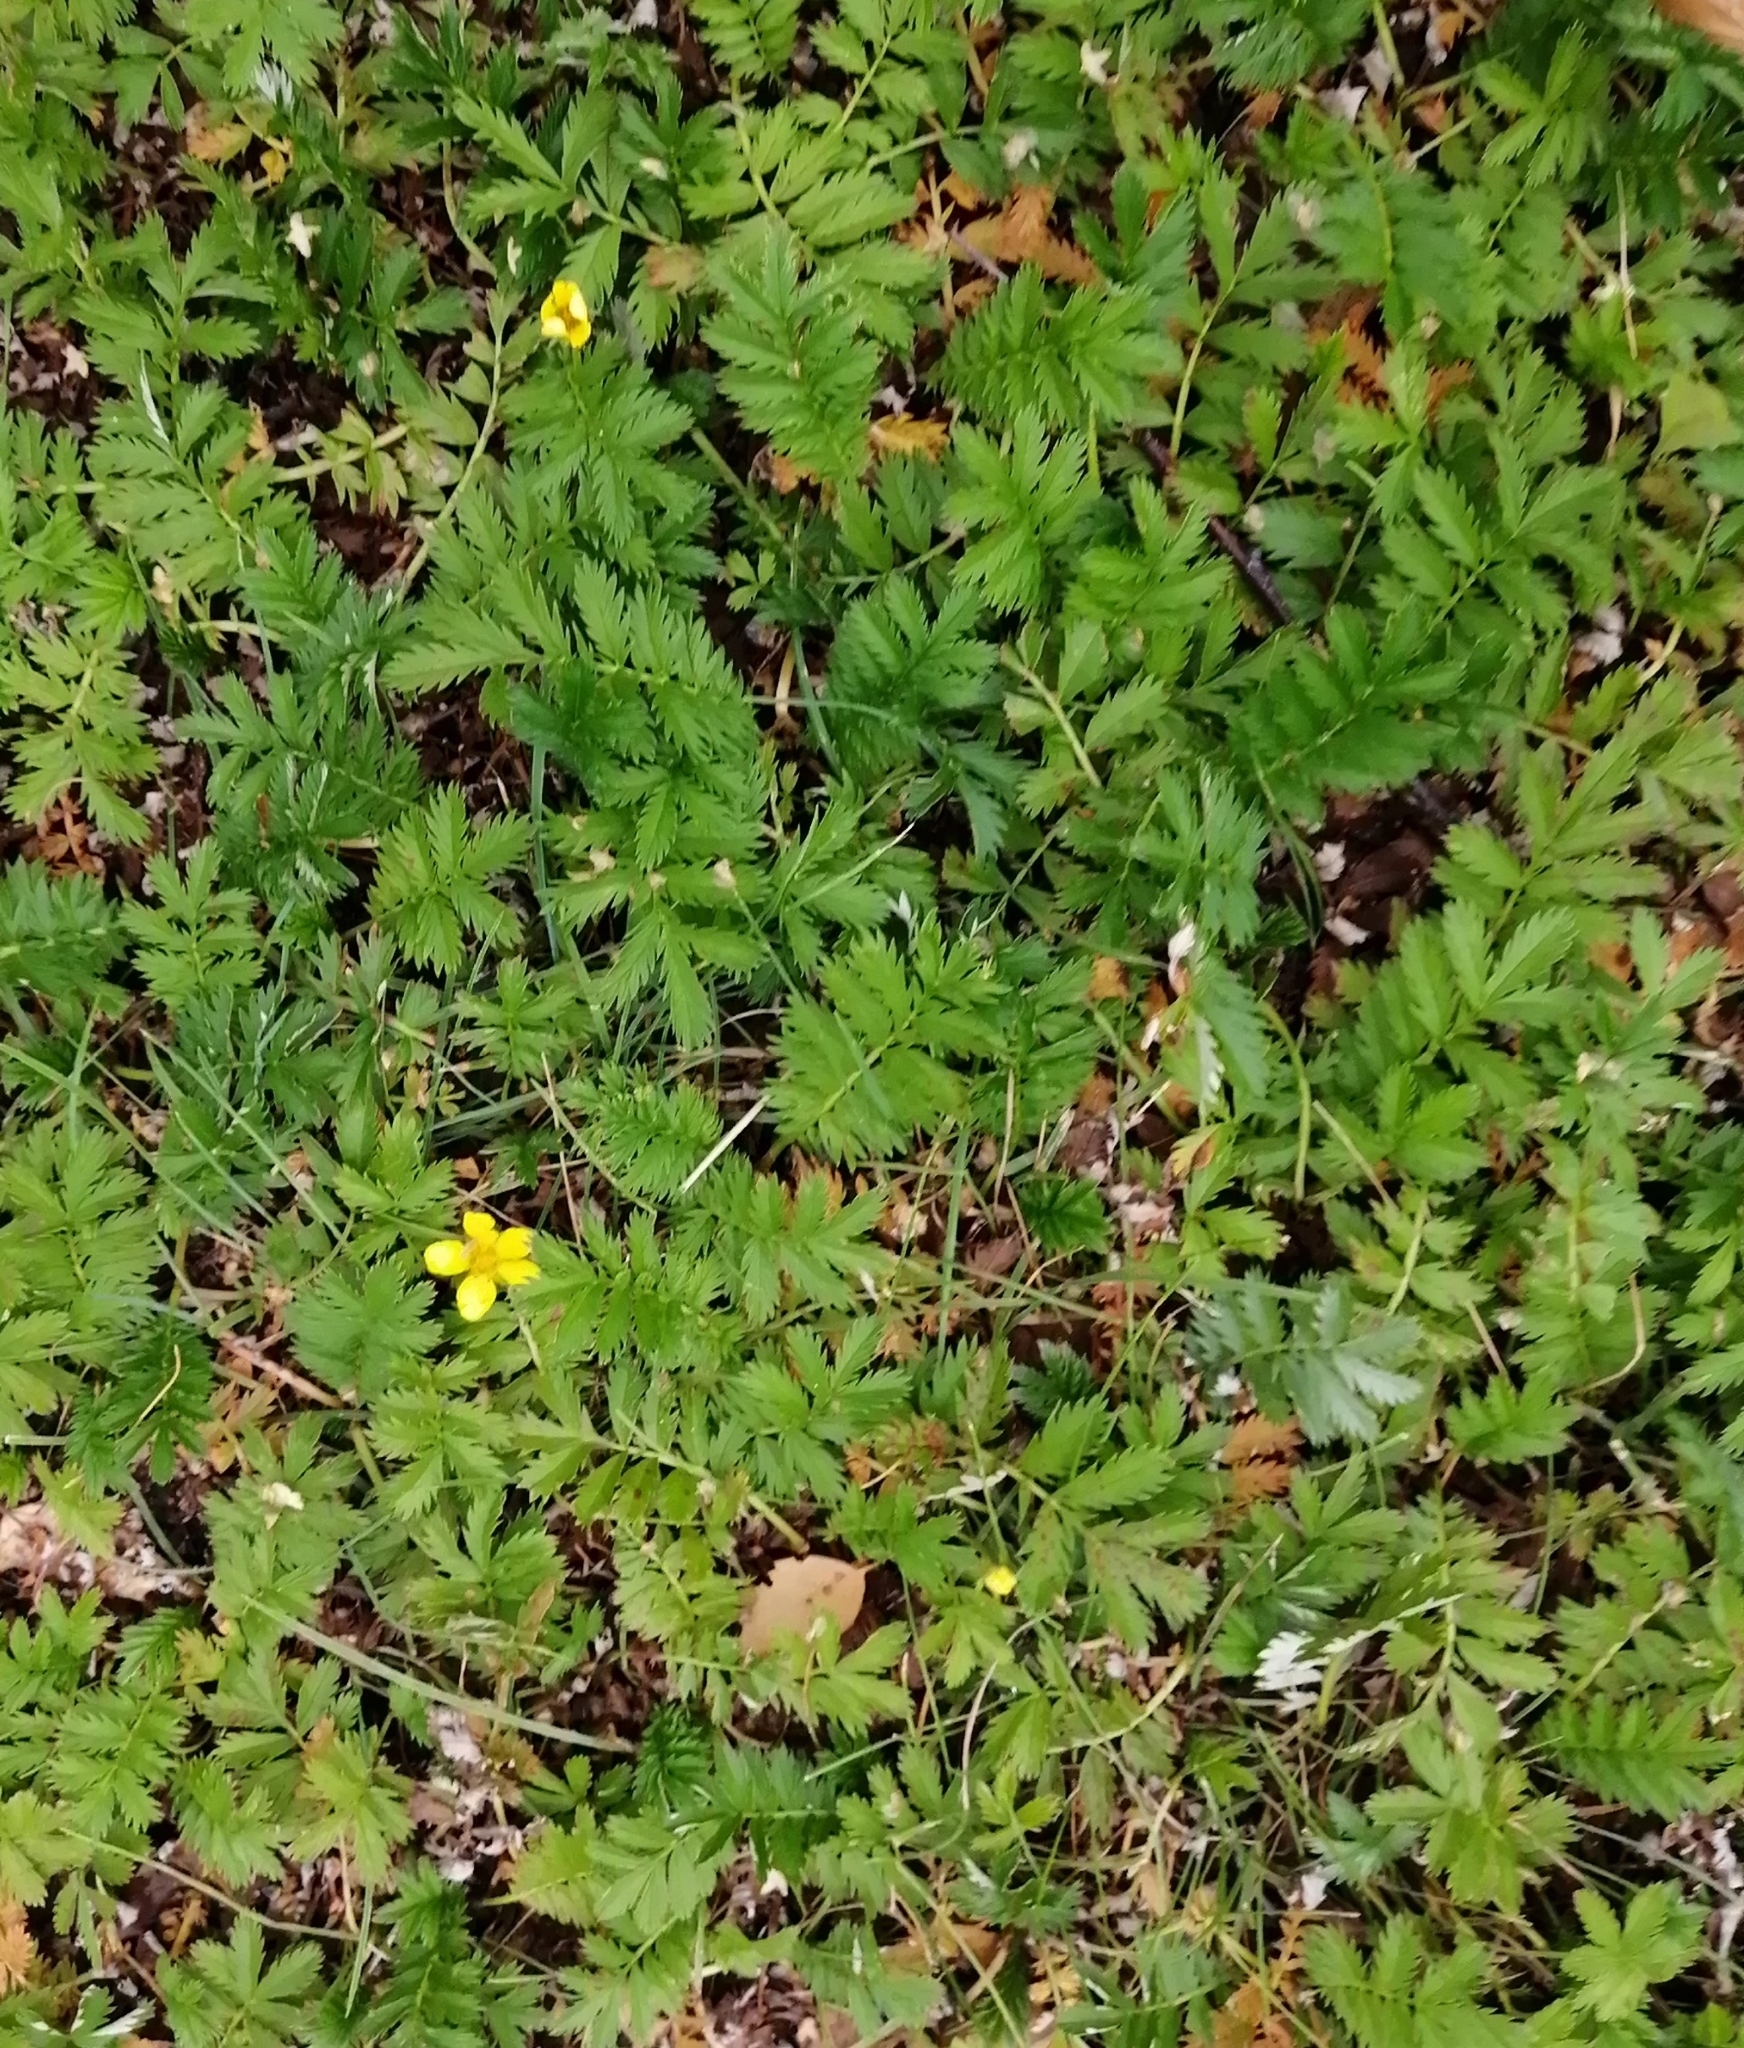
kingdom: Plantae
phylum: Tracheophyta
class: Magnoliopsida
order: Rosales
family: Rosaceae
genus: Argentina
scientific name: Argentina anserina
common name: Common silverweed
